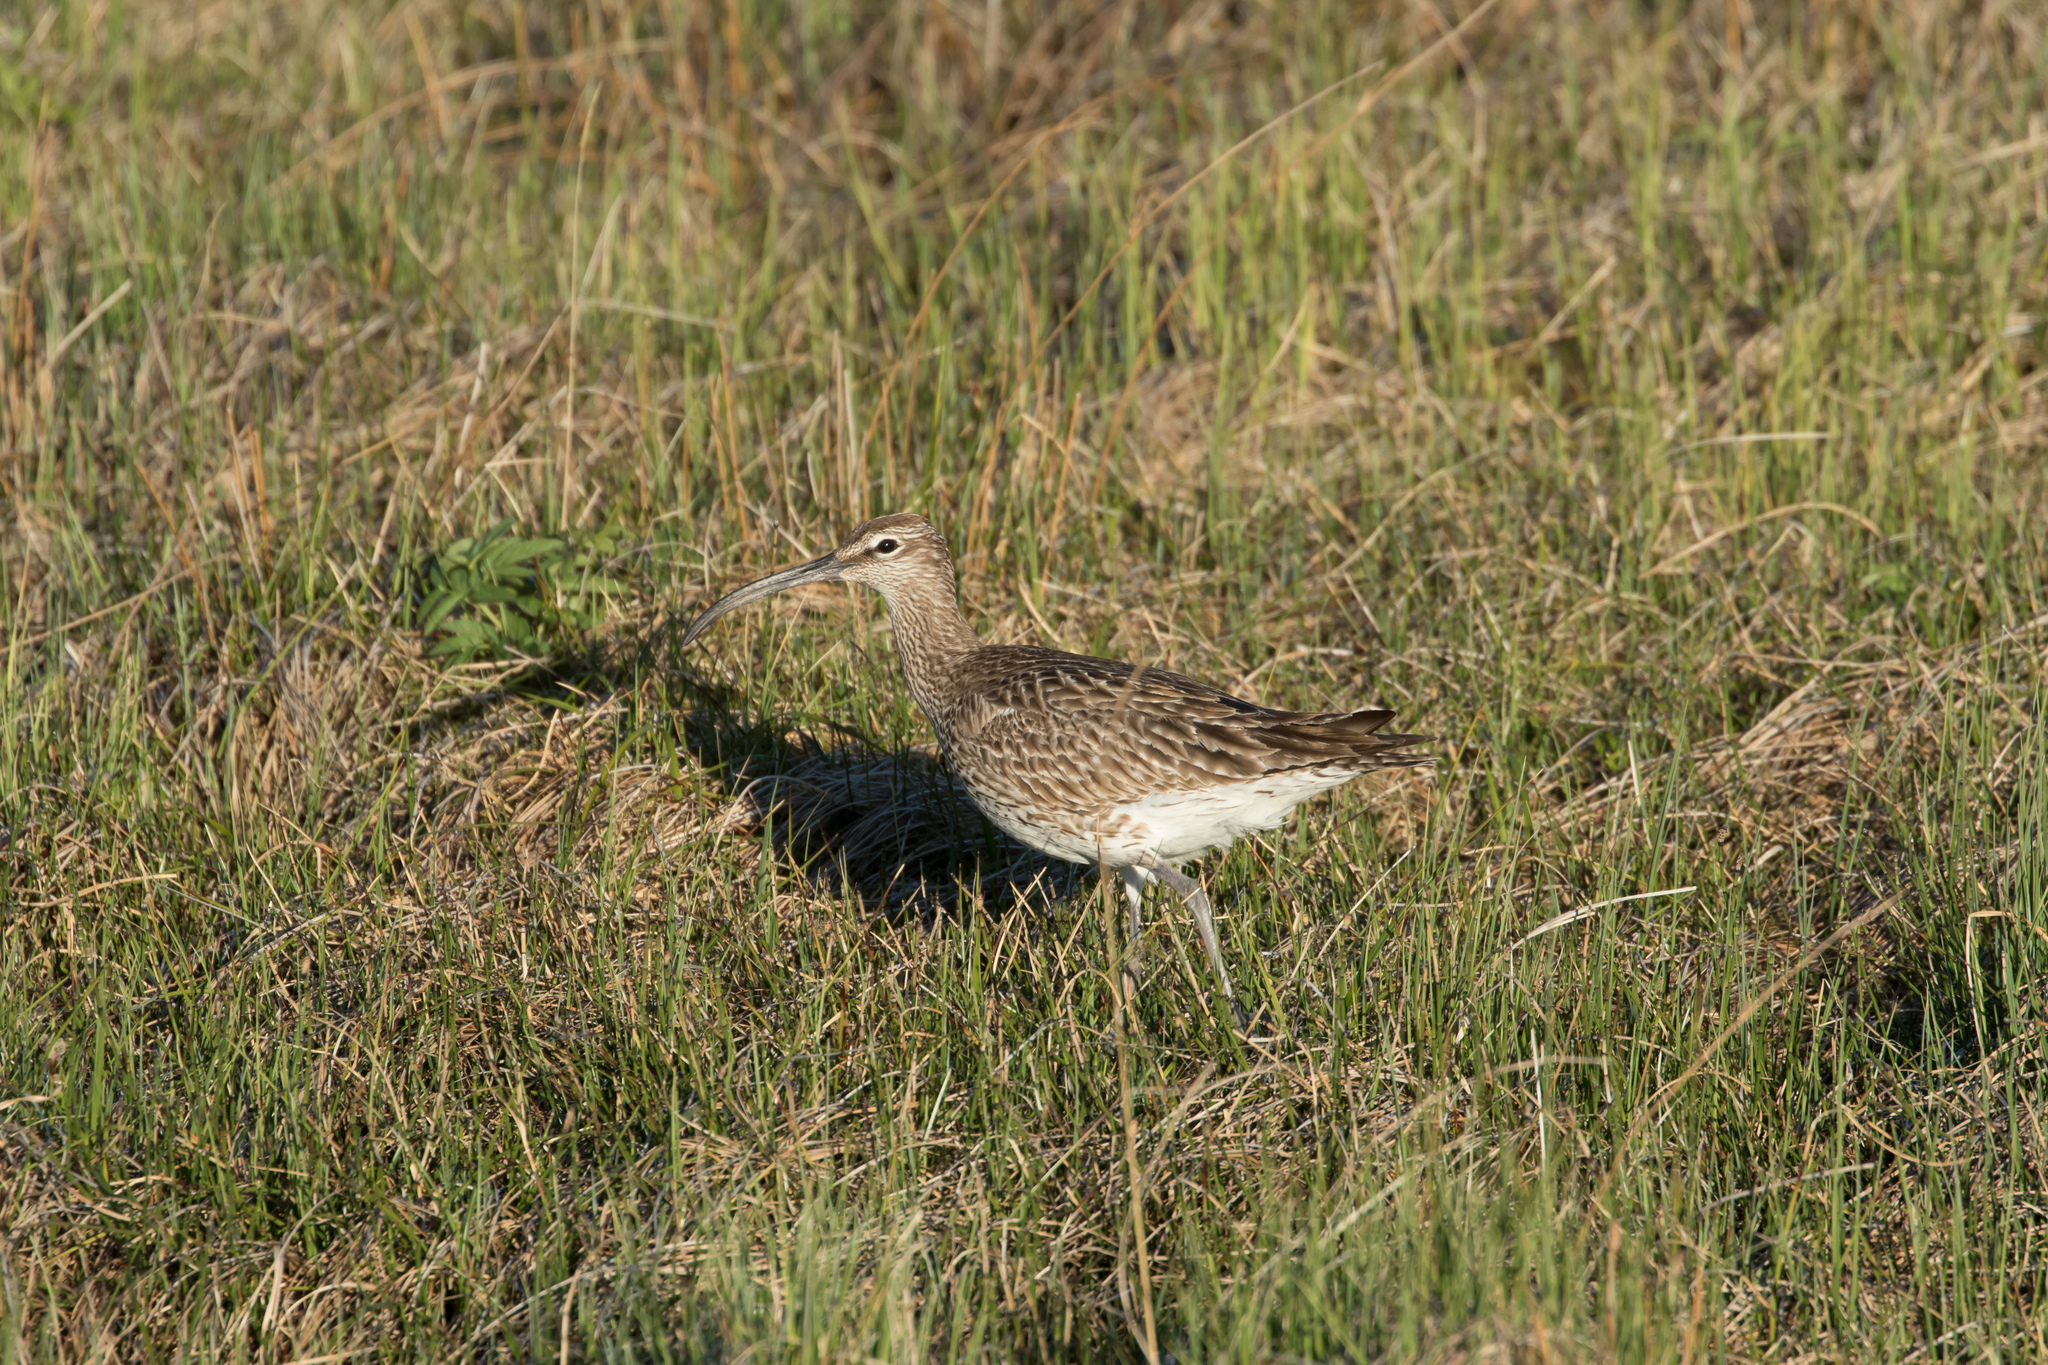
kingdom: Animalia
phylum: Chordata
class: Aves
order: Charadriiformes
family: Scolopacidae
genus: Numenius
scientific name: Numenius phaeopus
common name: Whimbrel
